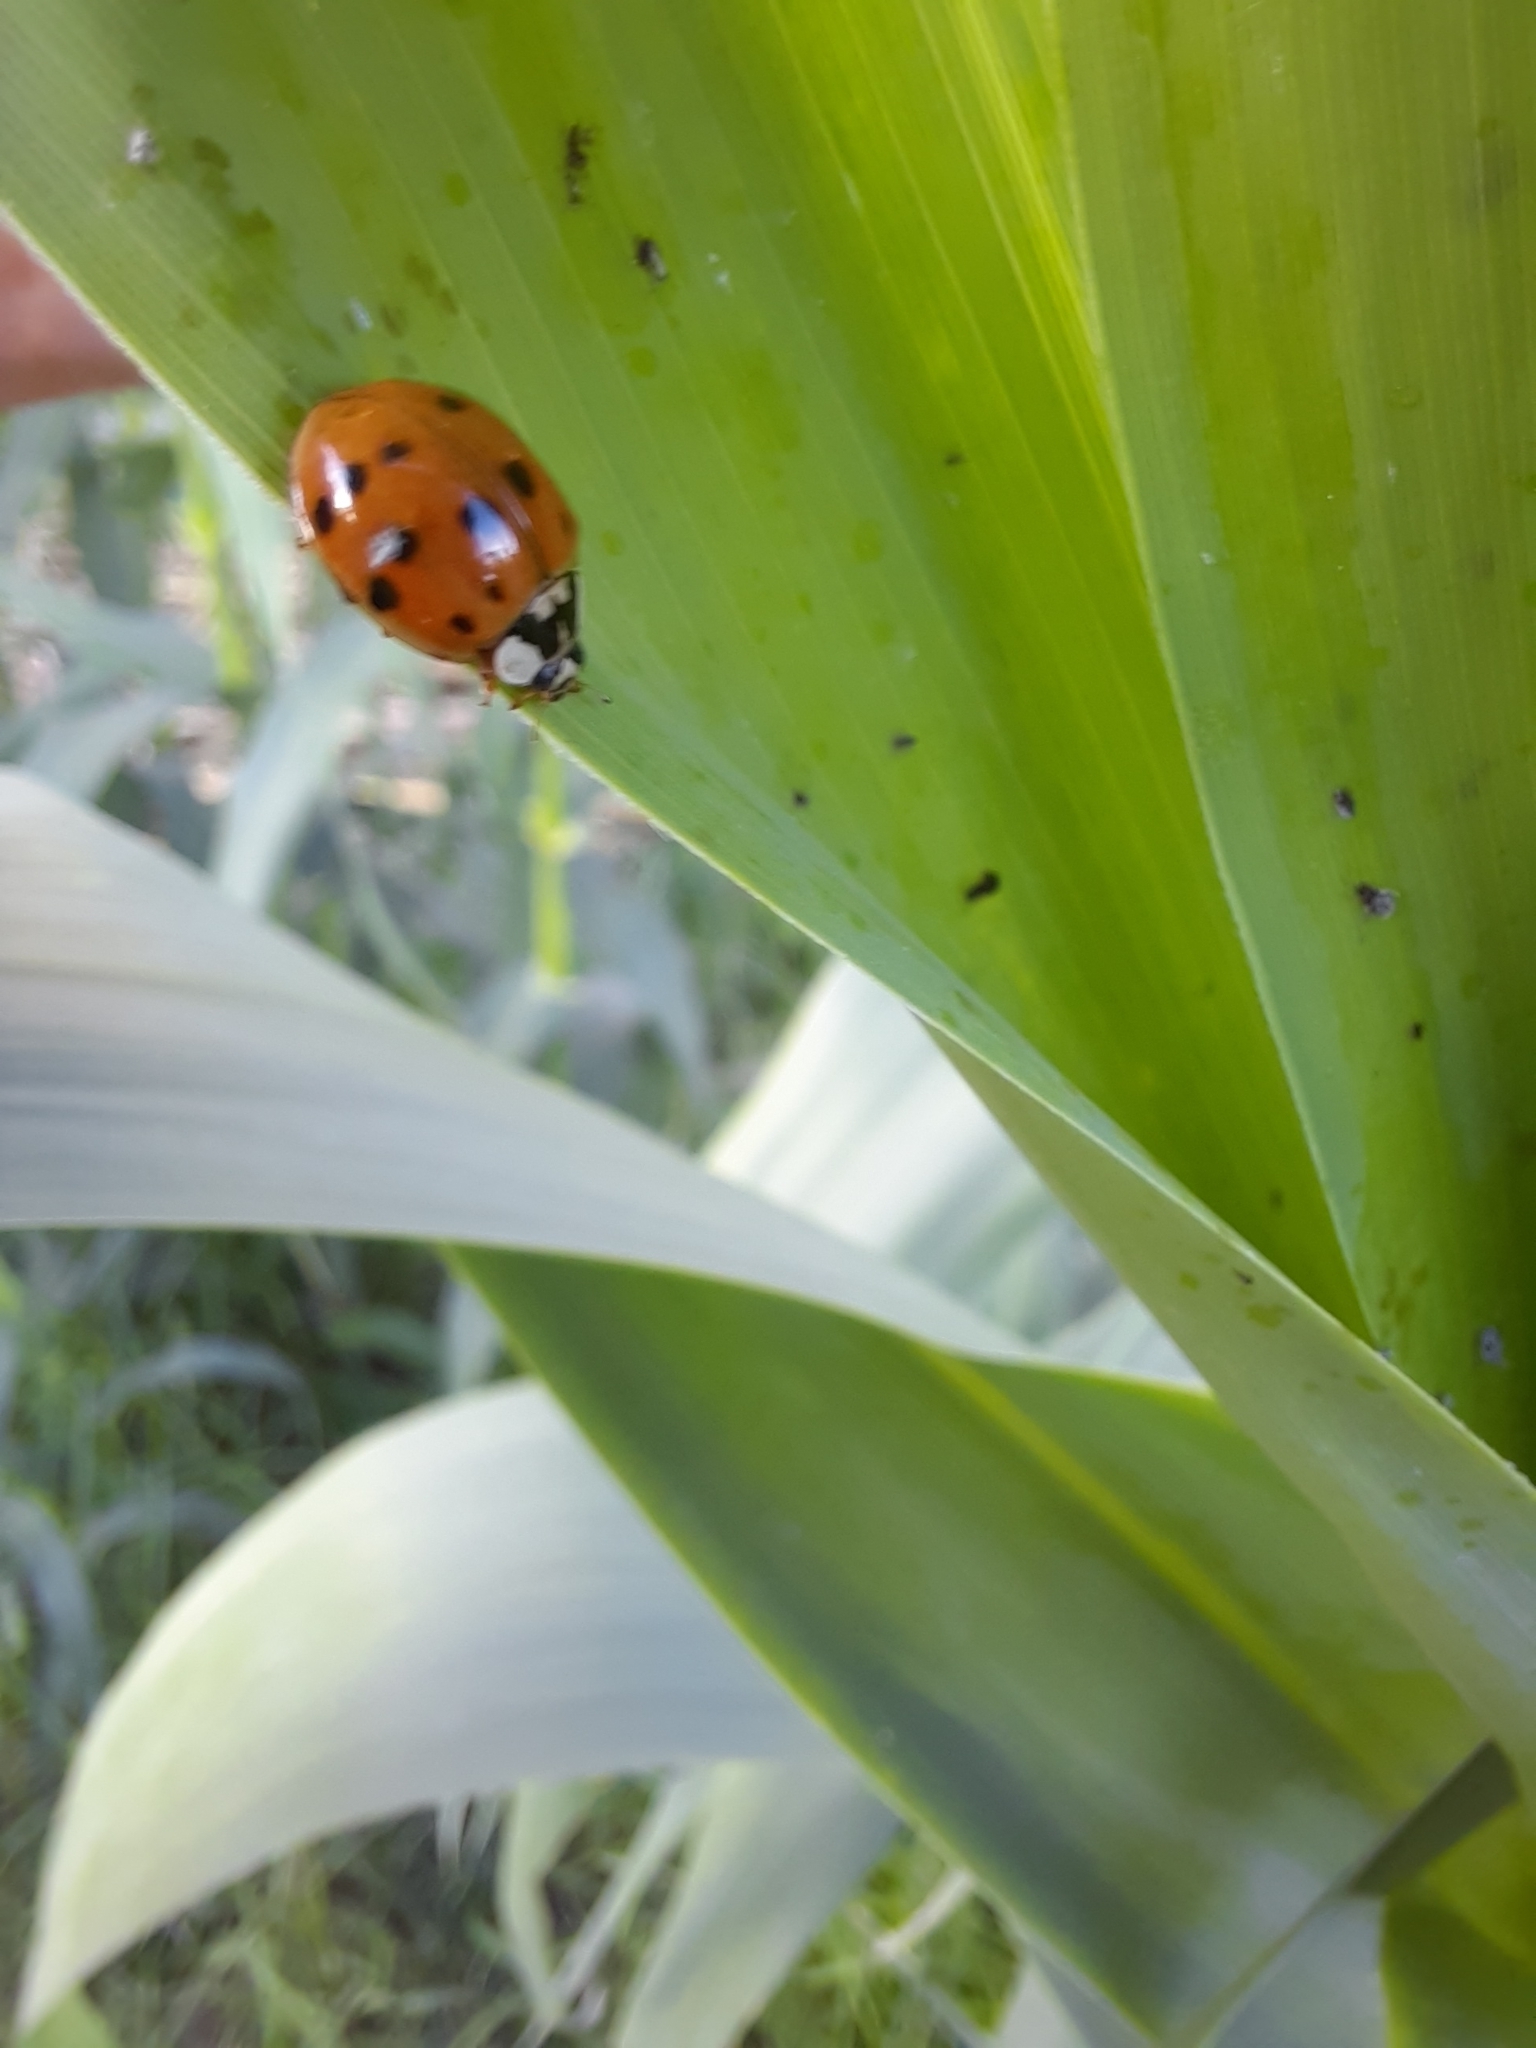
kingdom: Animalia
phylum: Arthropoda
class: Insecta
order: Coleoptera
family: Coccinellidae
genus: Harmonia
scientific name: Harmonia axyridis
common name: Harlequin ladybird
